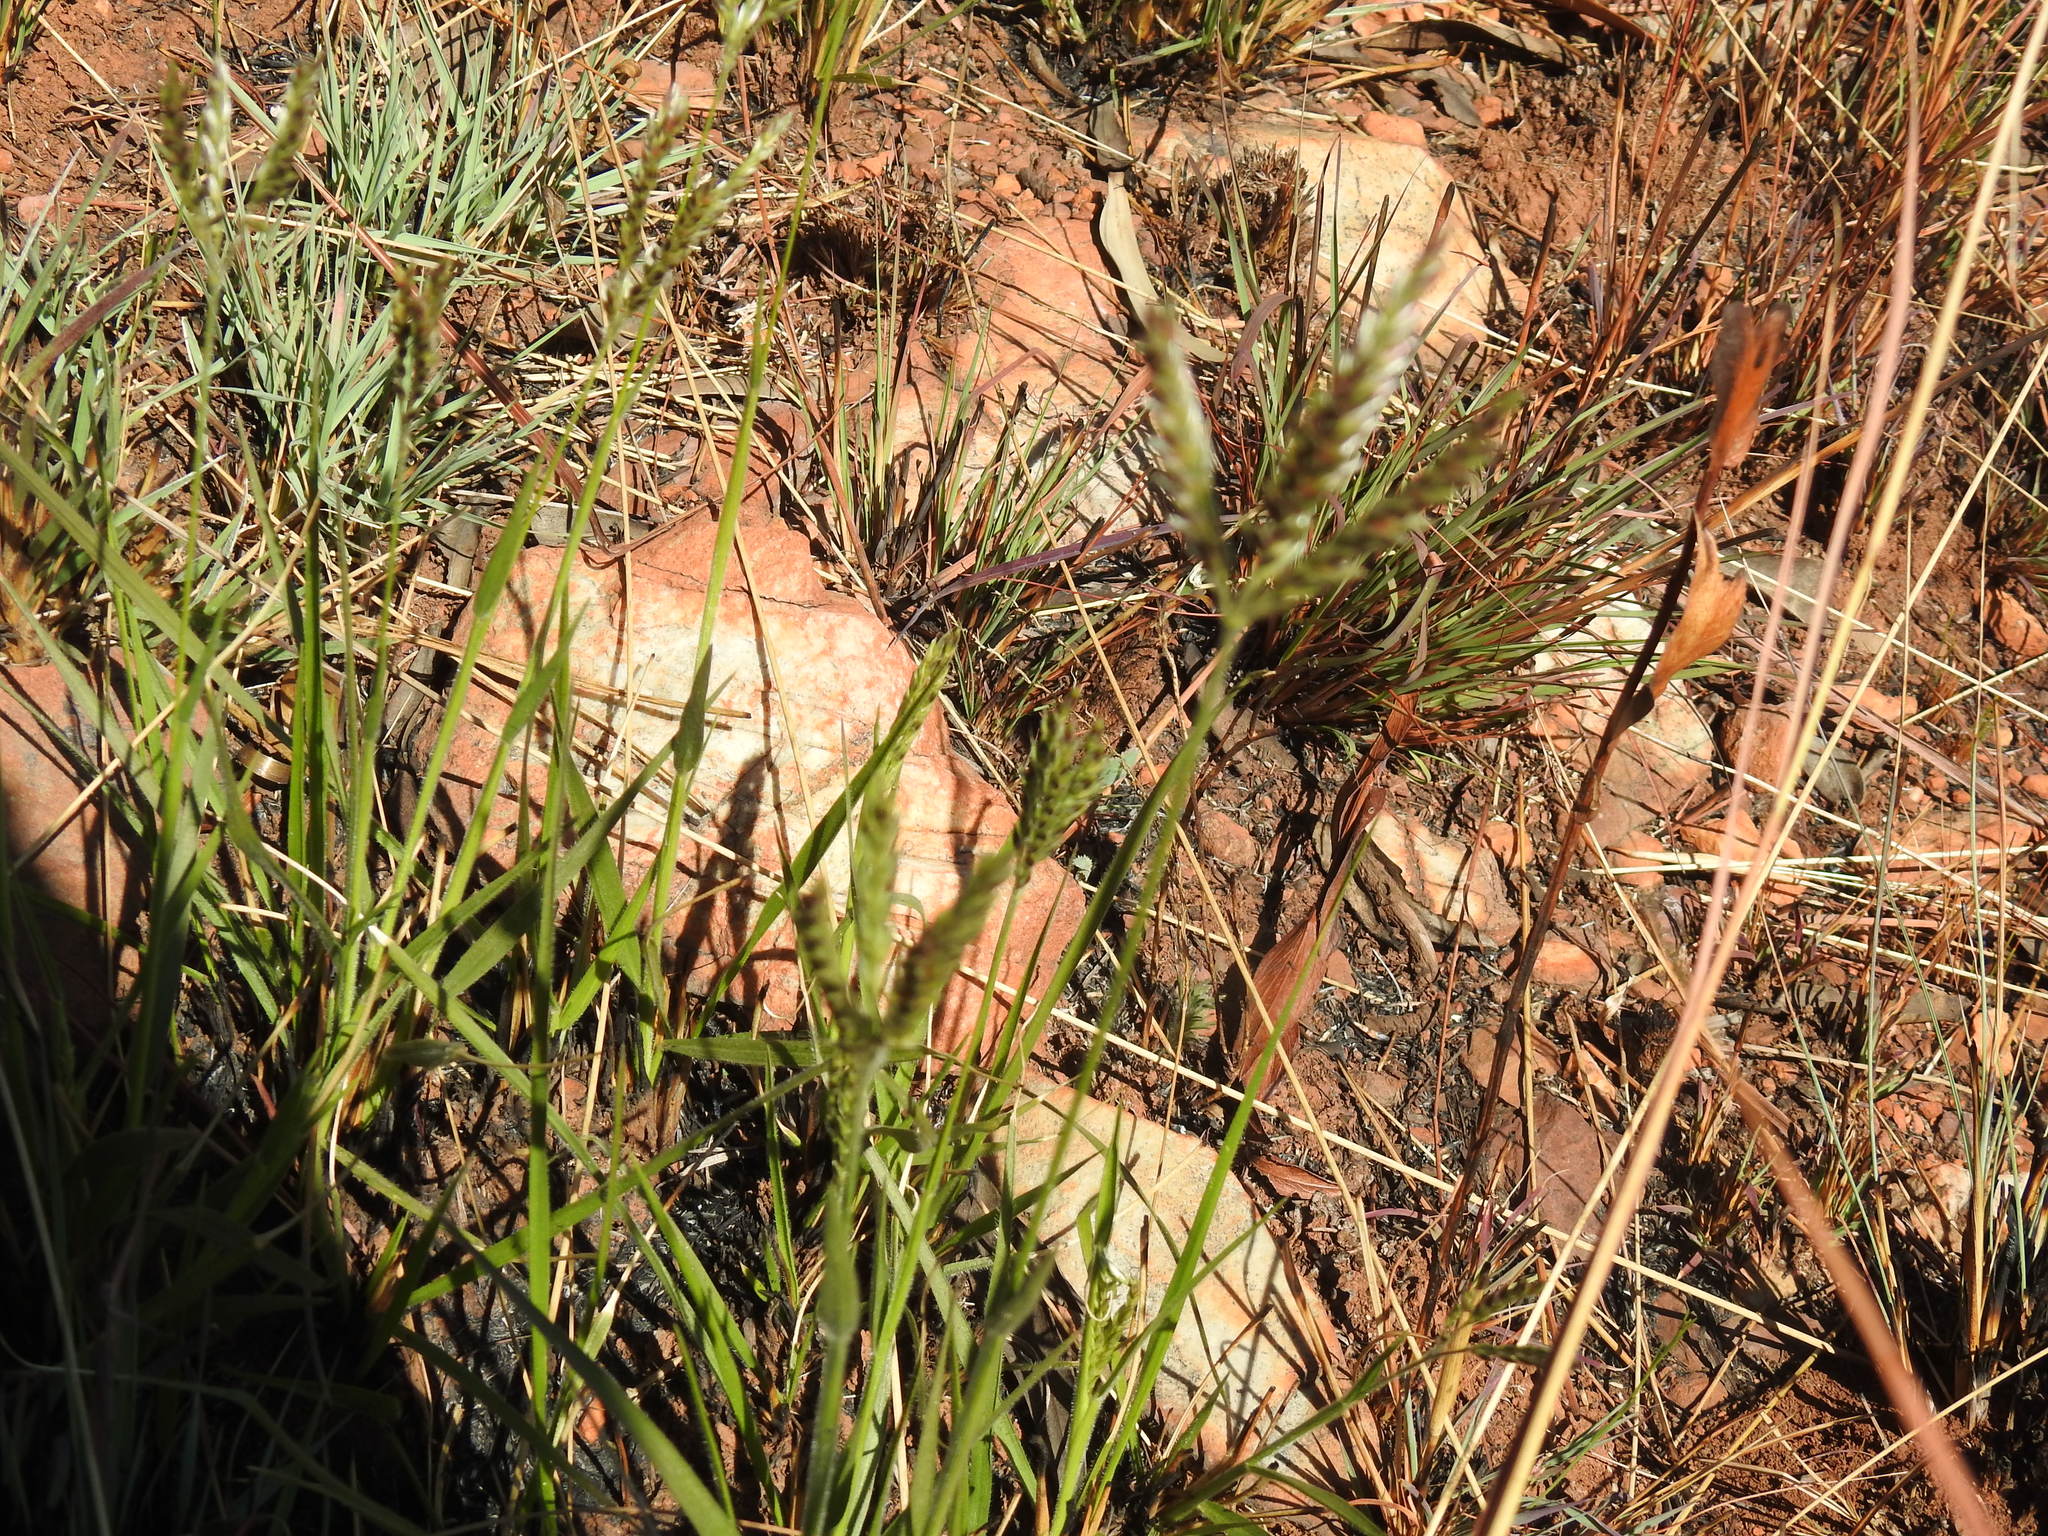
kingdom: Plantae
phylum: Tracheophyta
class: Liliopsida
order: Poales
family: Poaceae
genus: Alloteropsis
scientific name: Alloteropsis semialata
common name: Cockatoo grass
